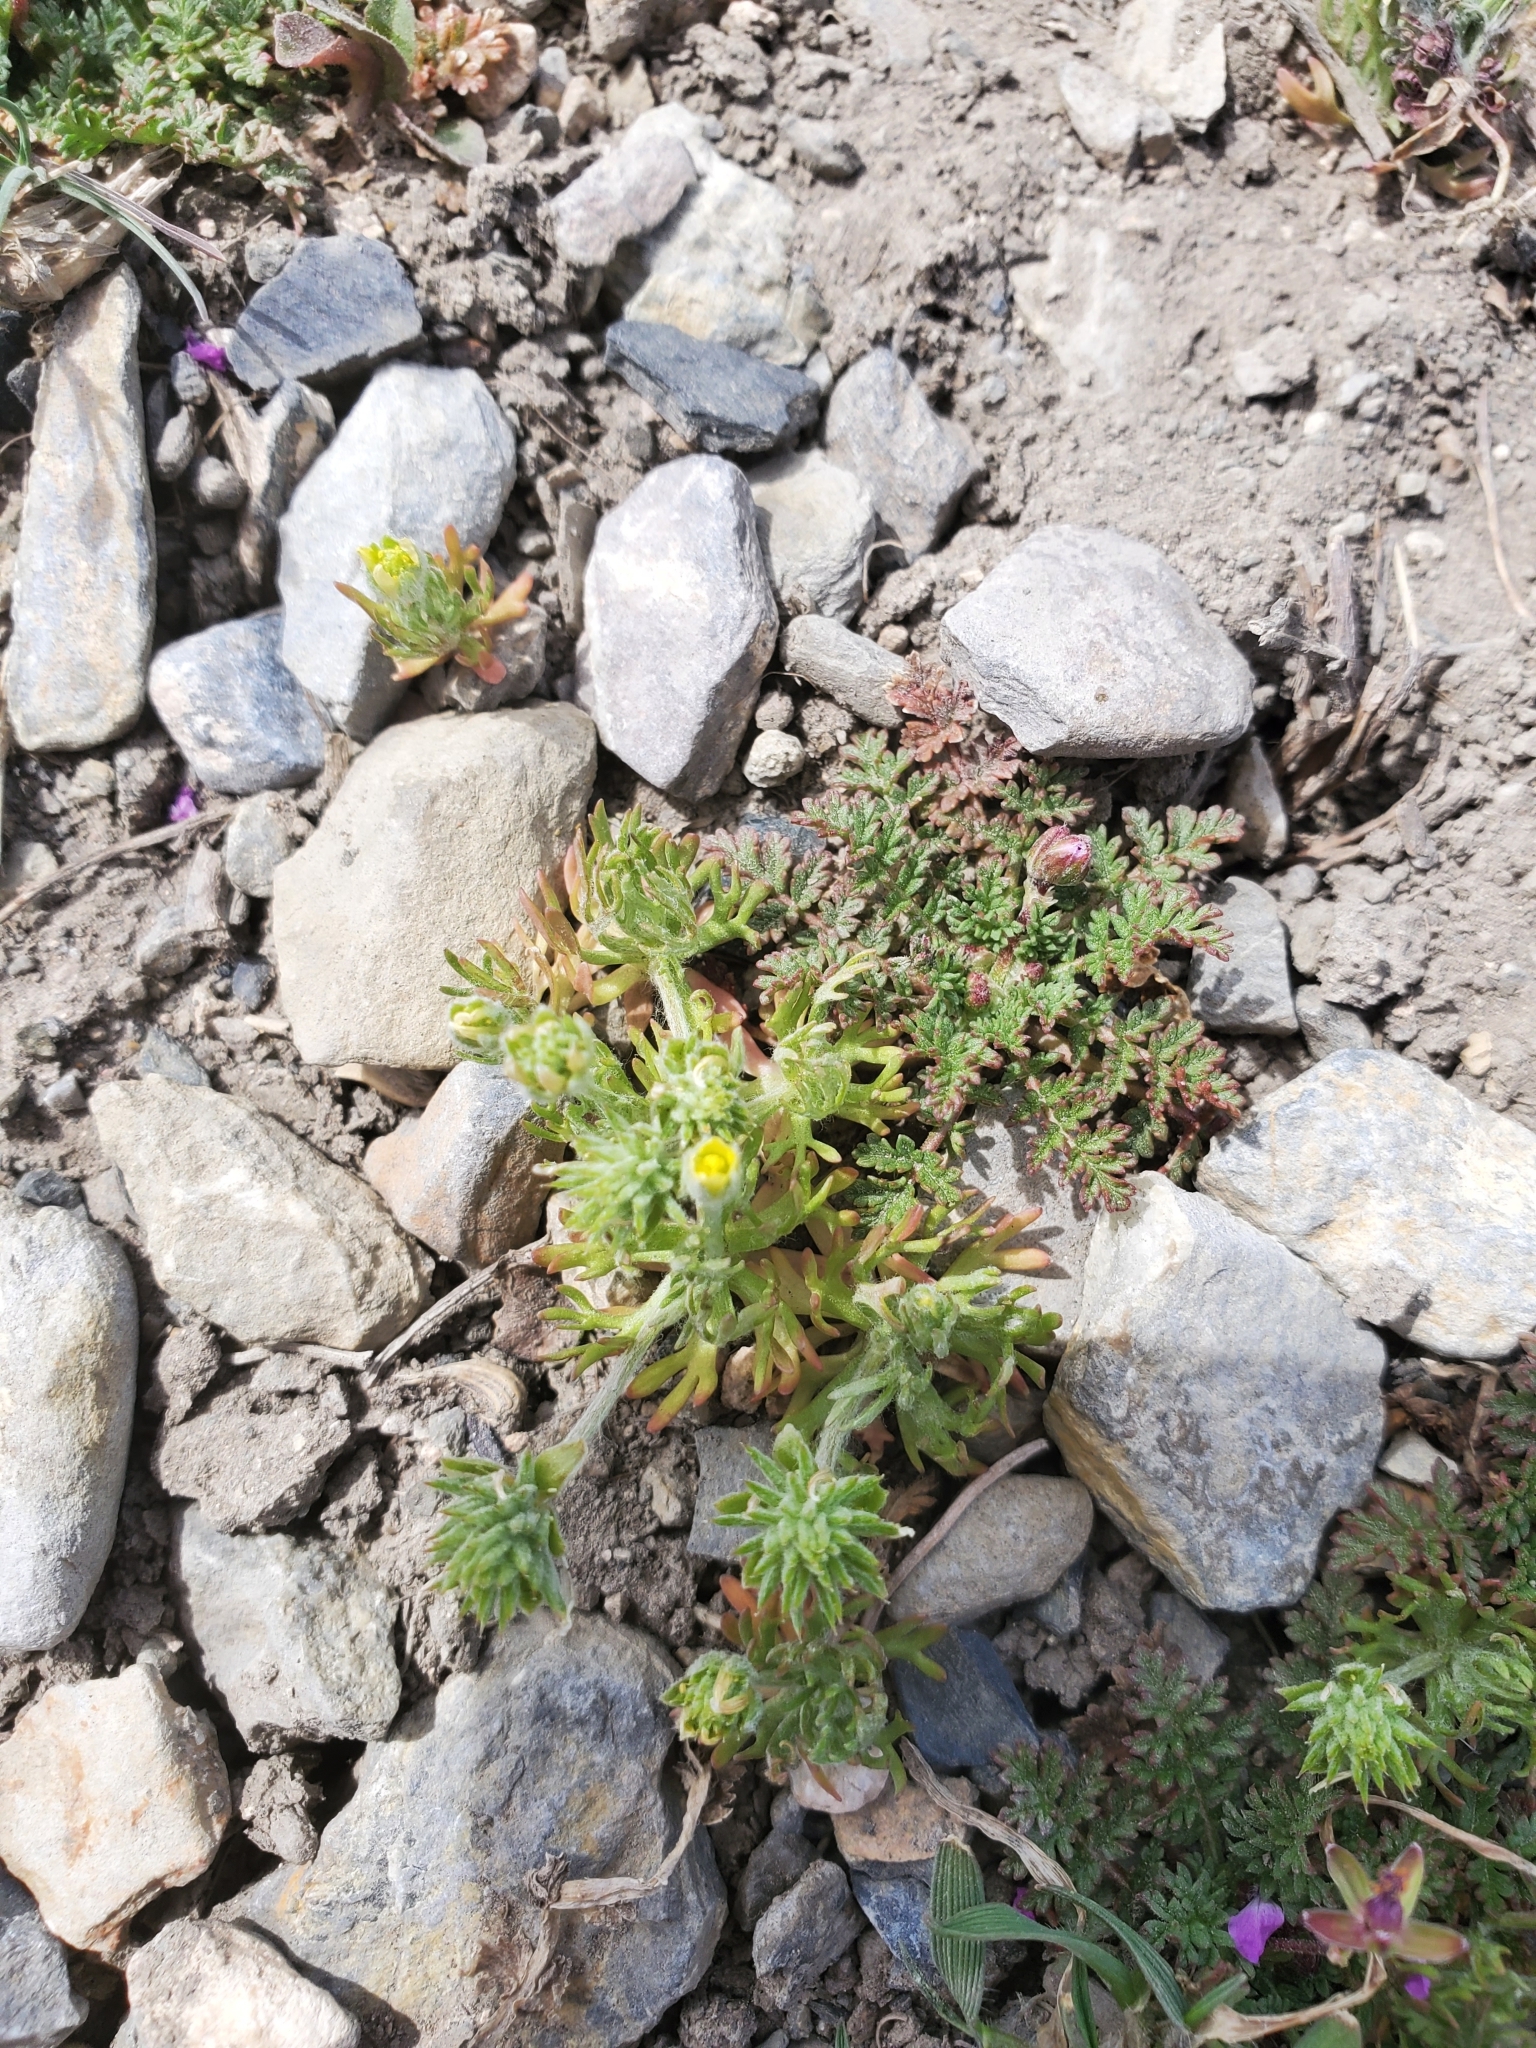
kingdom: Plantae
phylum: Tracheophyta
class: Magnoliopsida
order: Ranunculales
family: Ranunculaceae
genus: Ceratocephala
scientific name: Ceratocephala orthoceras
